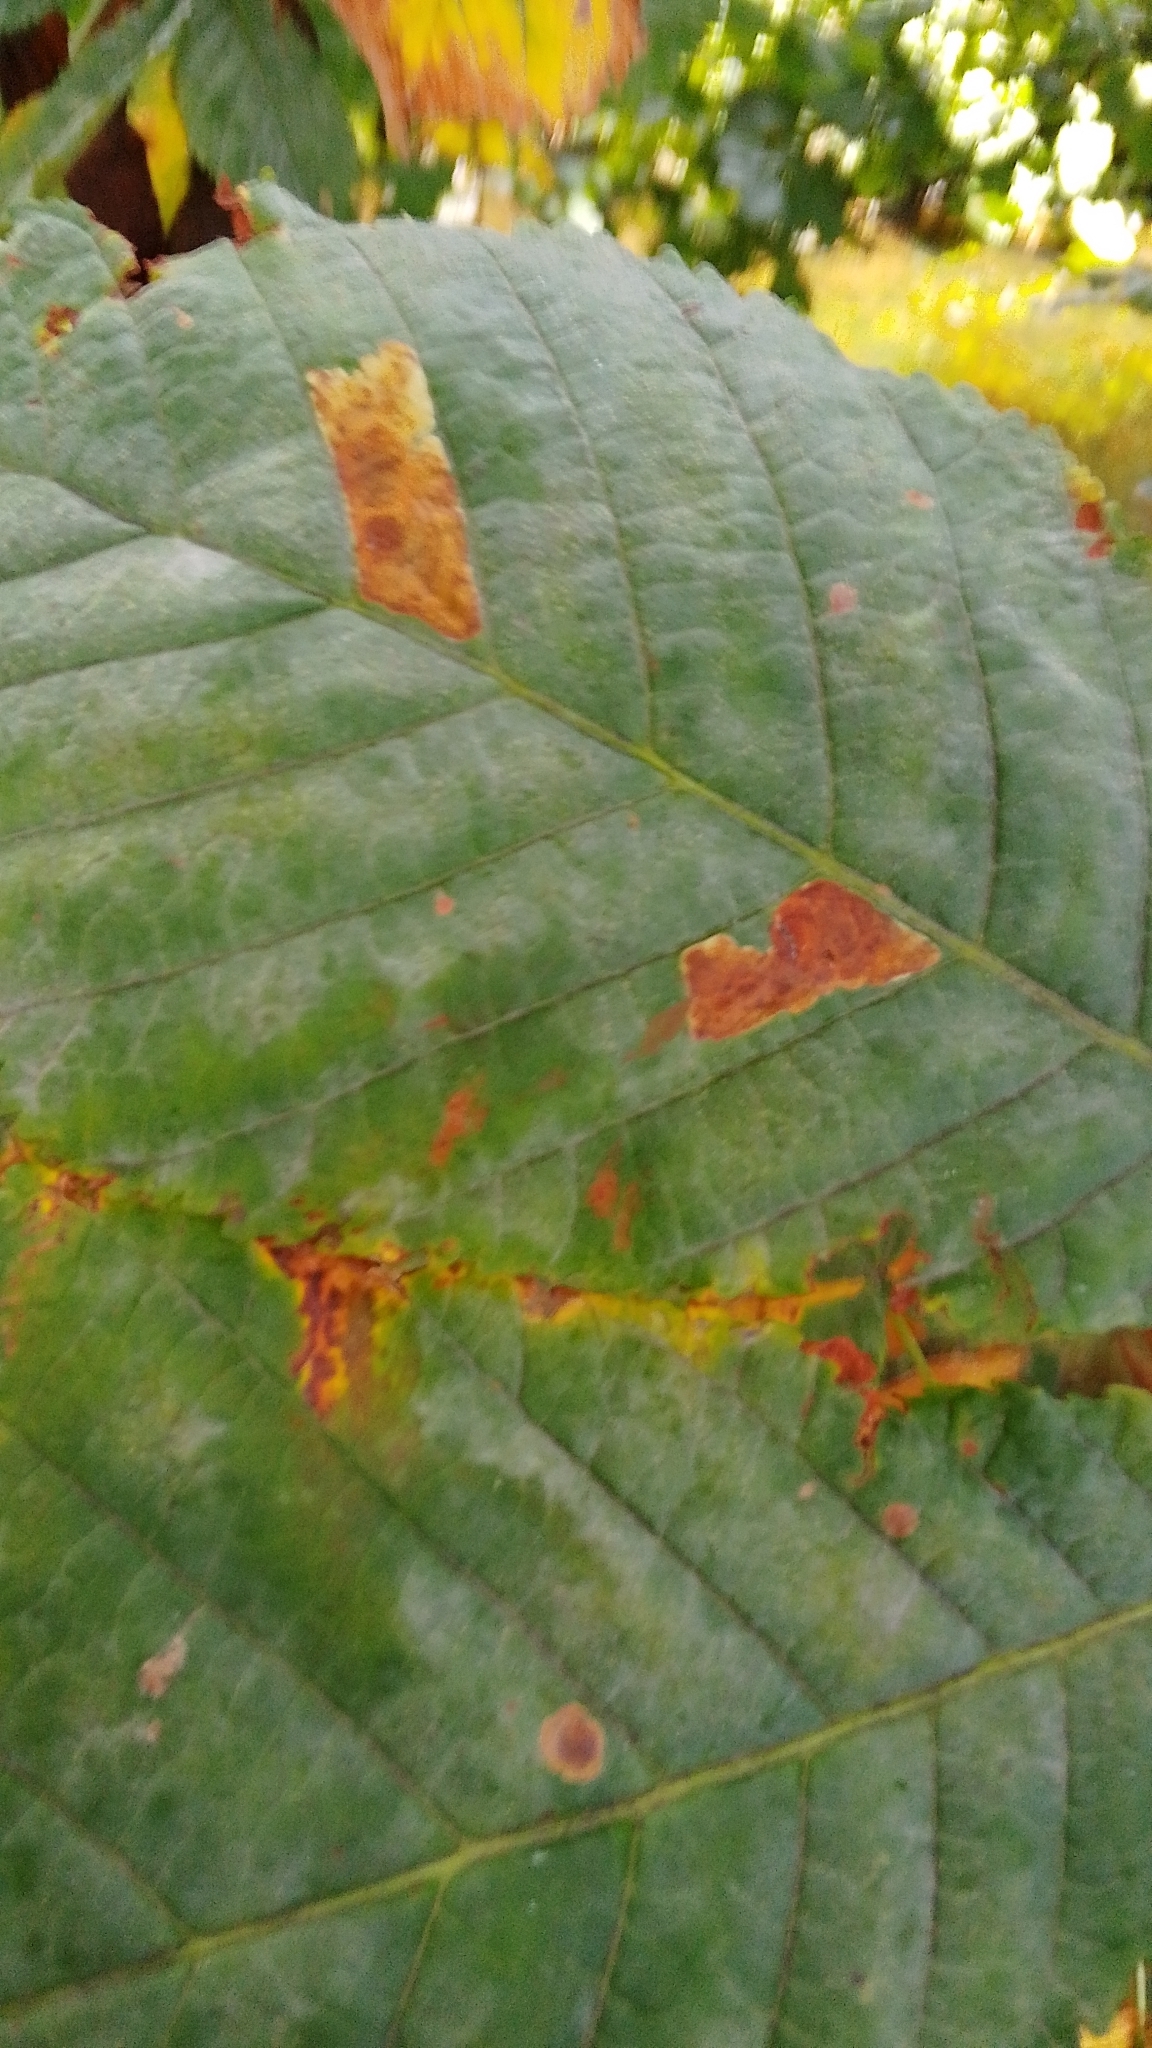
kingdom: Animalia
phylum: Arthropoda
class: Insecta
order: Lepidoptera
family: Gracillariidae
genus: Cameraria
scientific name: Cameraria ohridella
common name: Horse-chestnut leaf-miner
